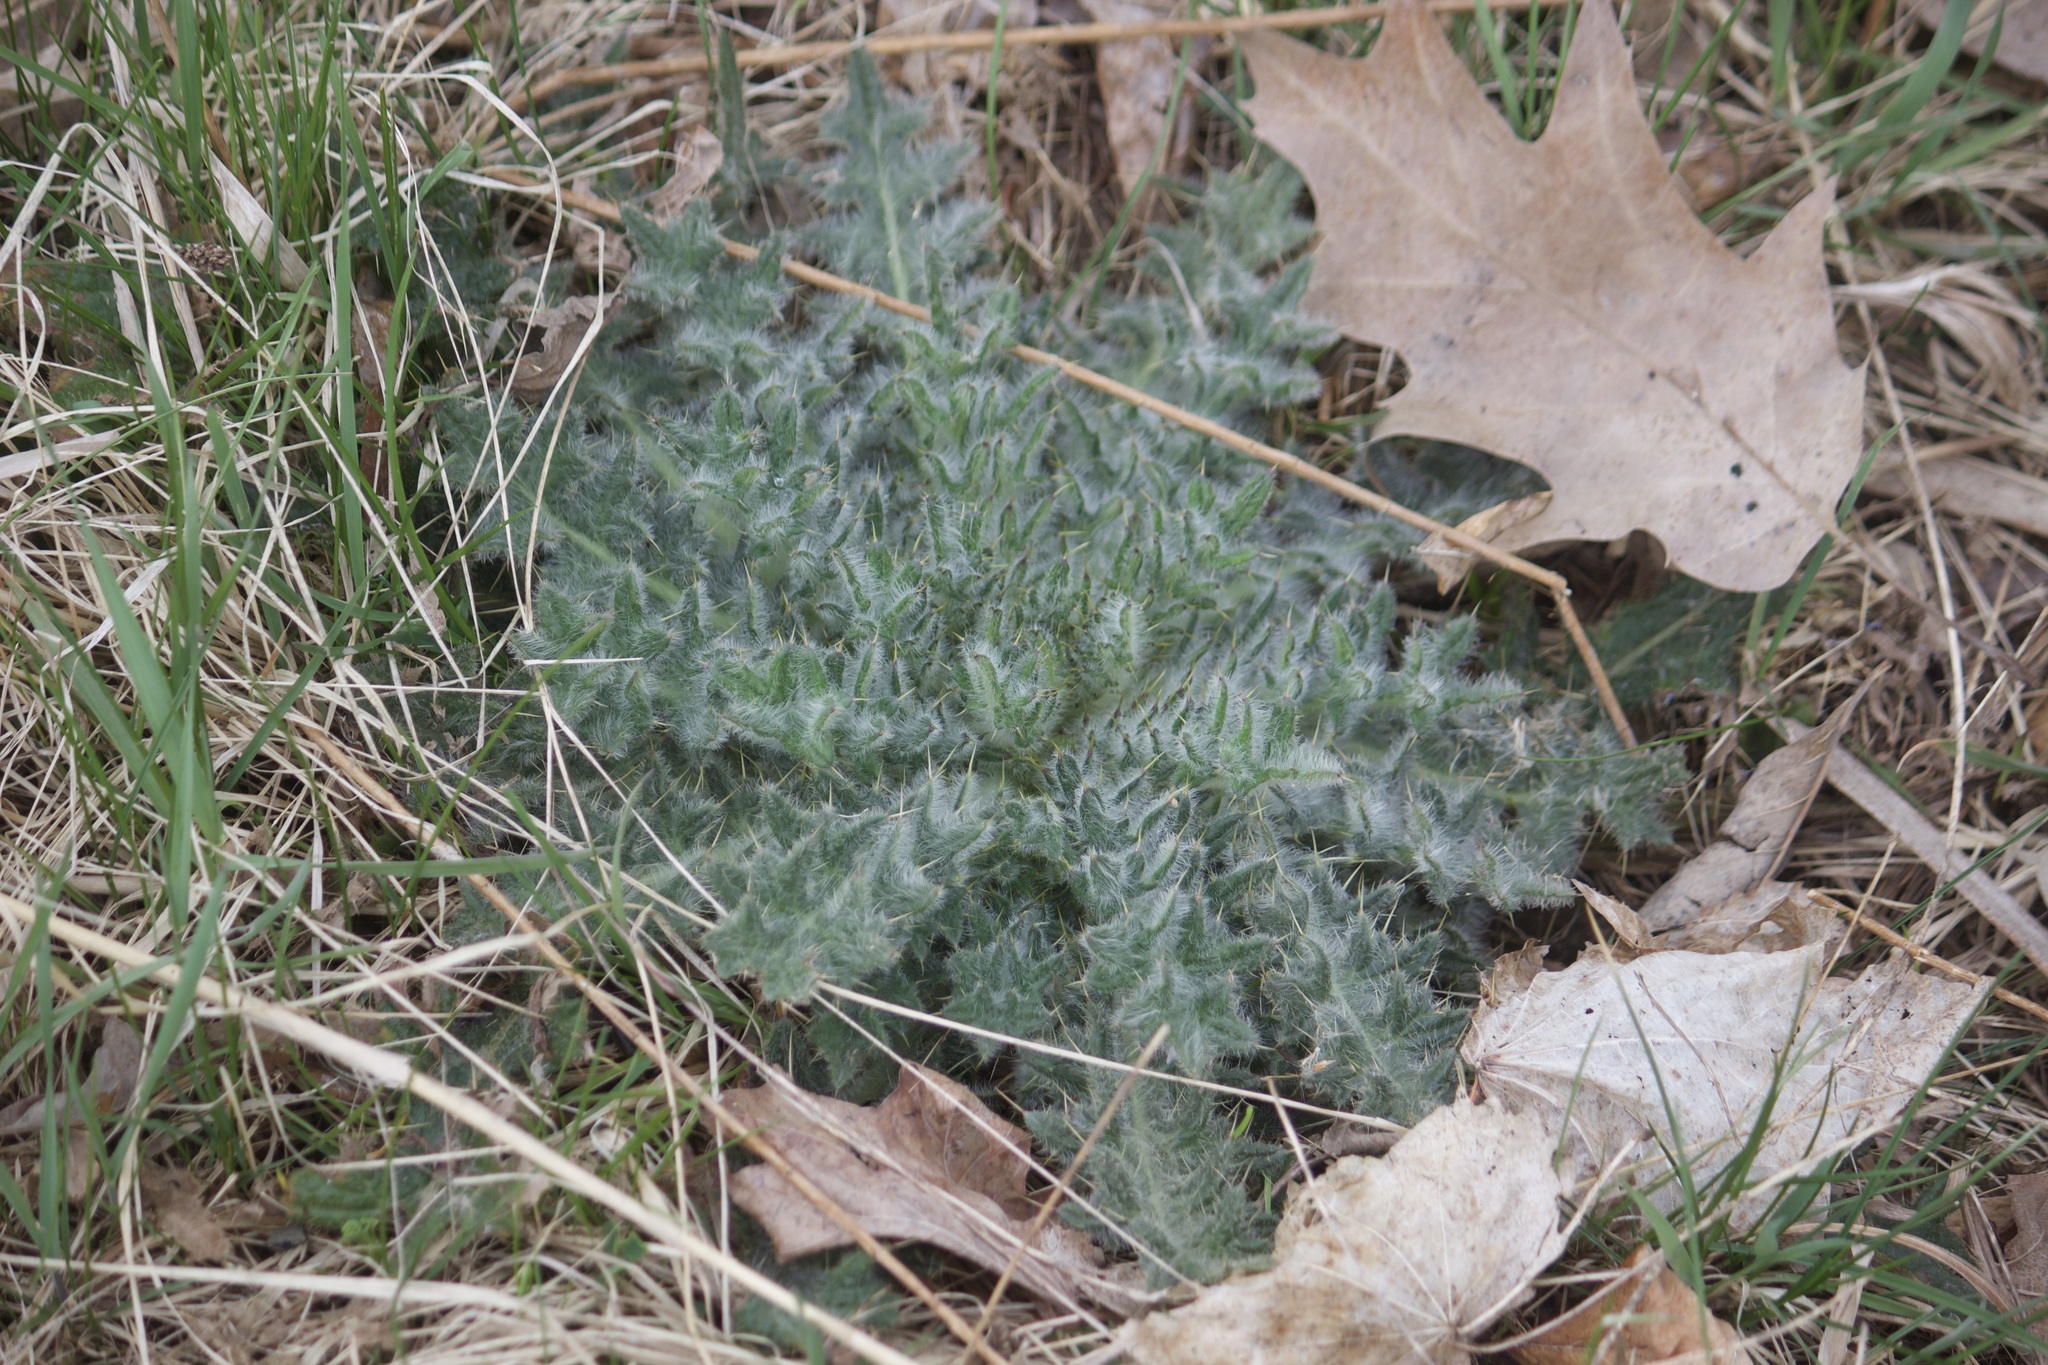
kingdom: Plantae
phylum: Tracheophyta
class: Magnoliopsida
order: Asterales
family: Asteraceae
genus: Cirsium
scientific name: Cirsium vulgare
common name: Bull thistle
